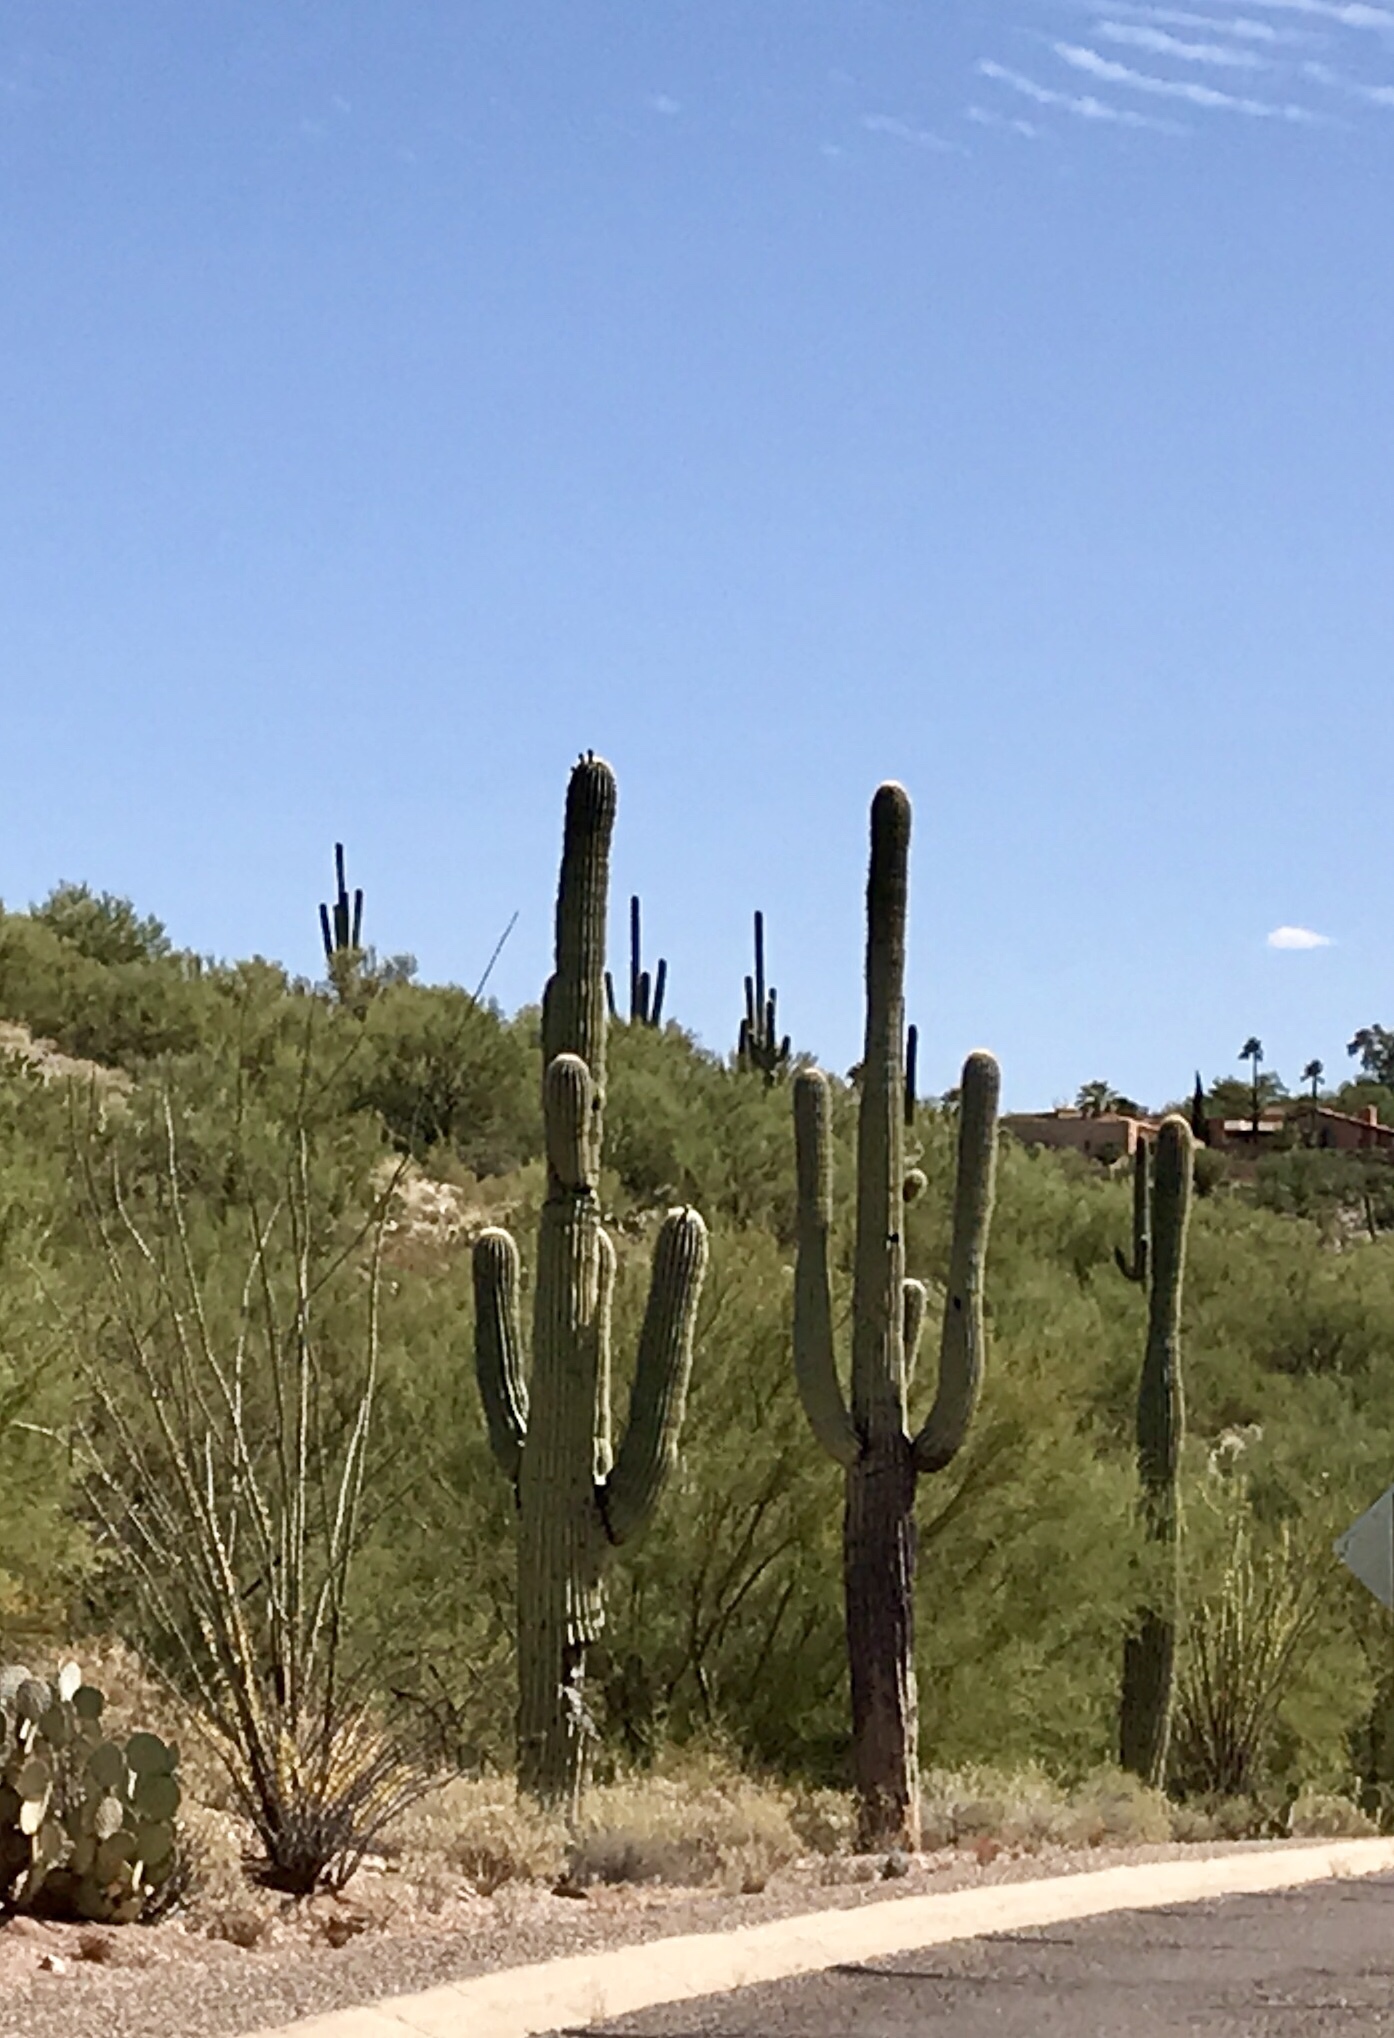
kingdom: Plantae
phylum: Tracheophyta
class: Magnoliopsida
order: Caryophyllales
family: Cactaceae
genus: Carnegiea
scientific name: Carnegiea gigantea
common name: Saguaro
